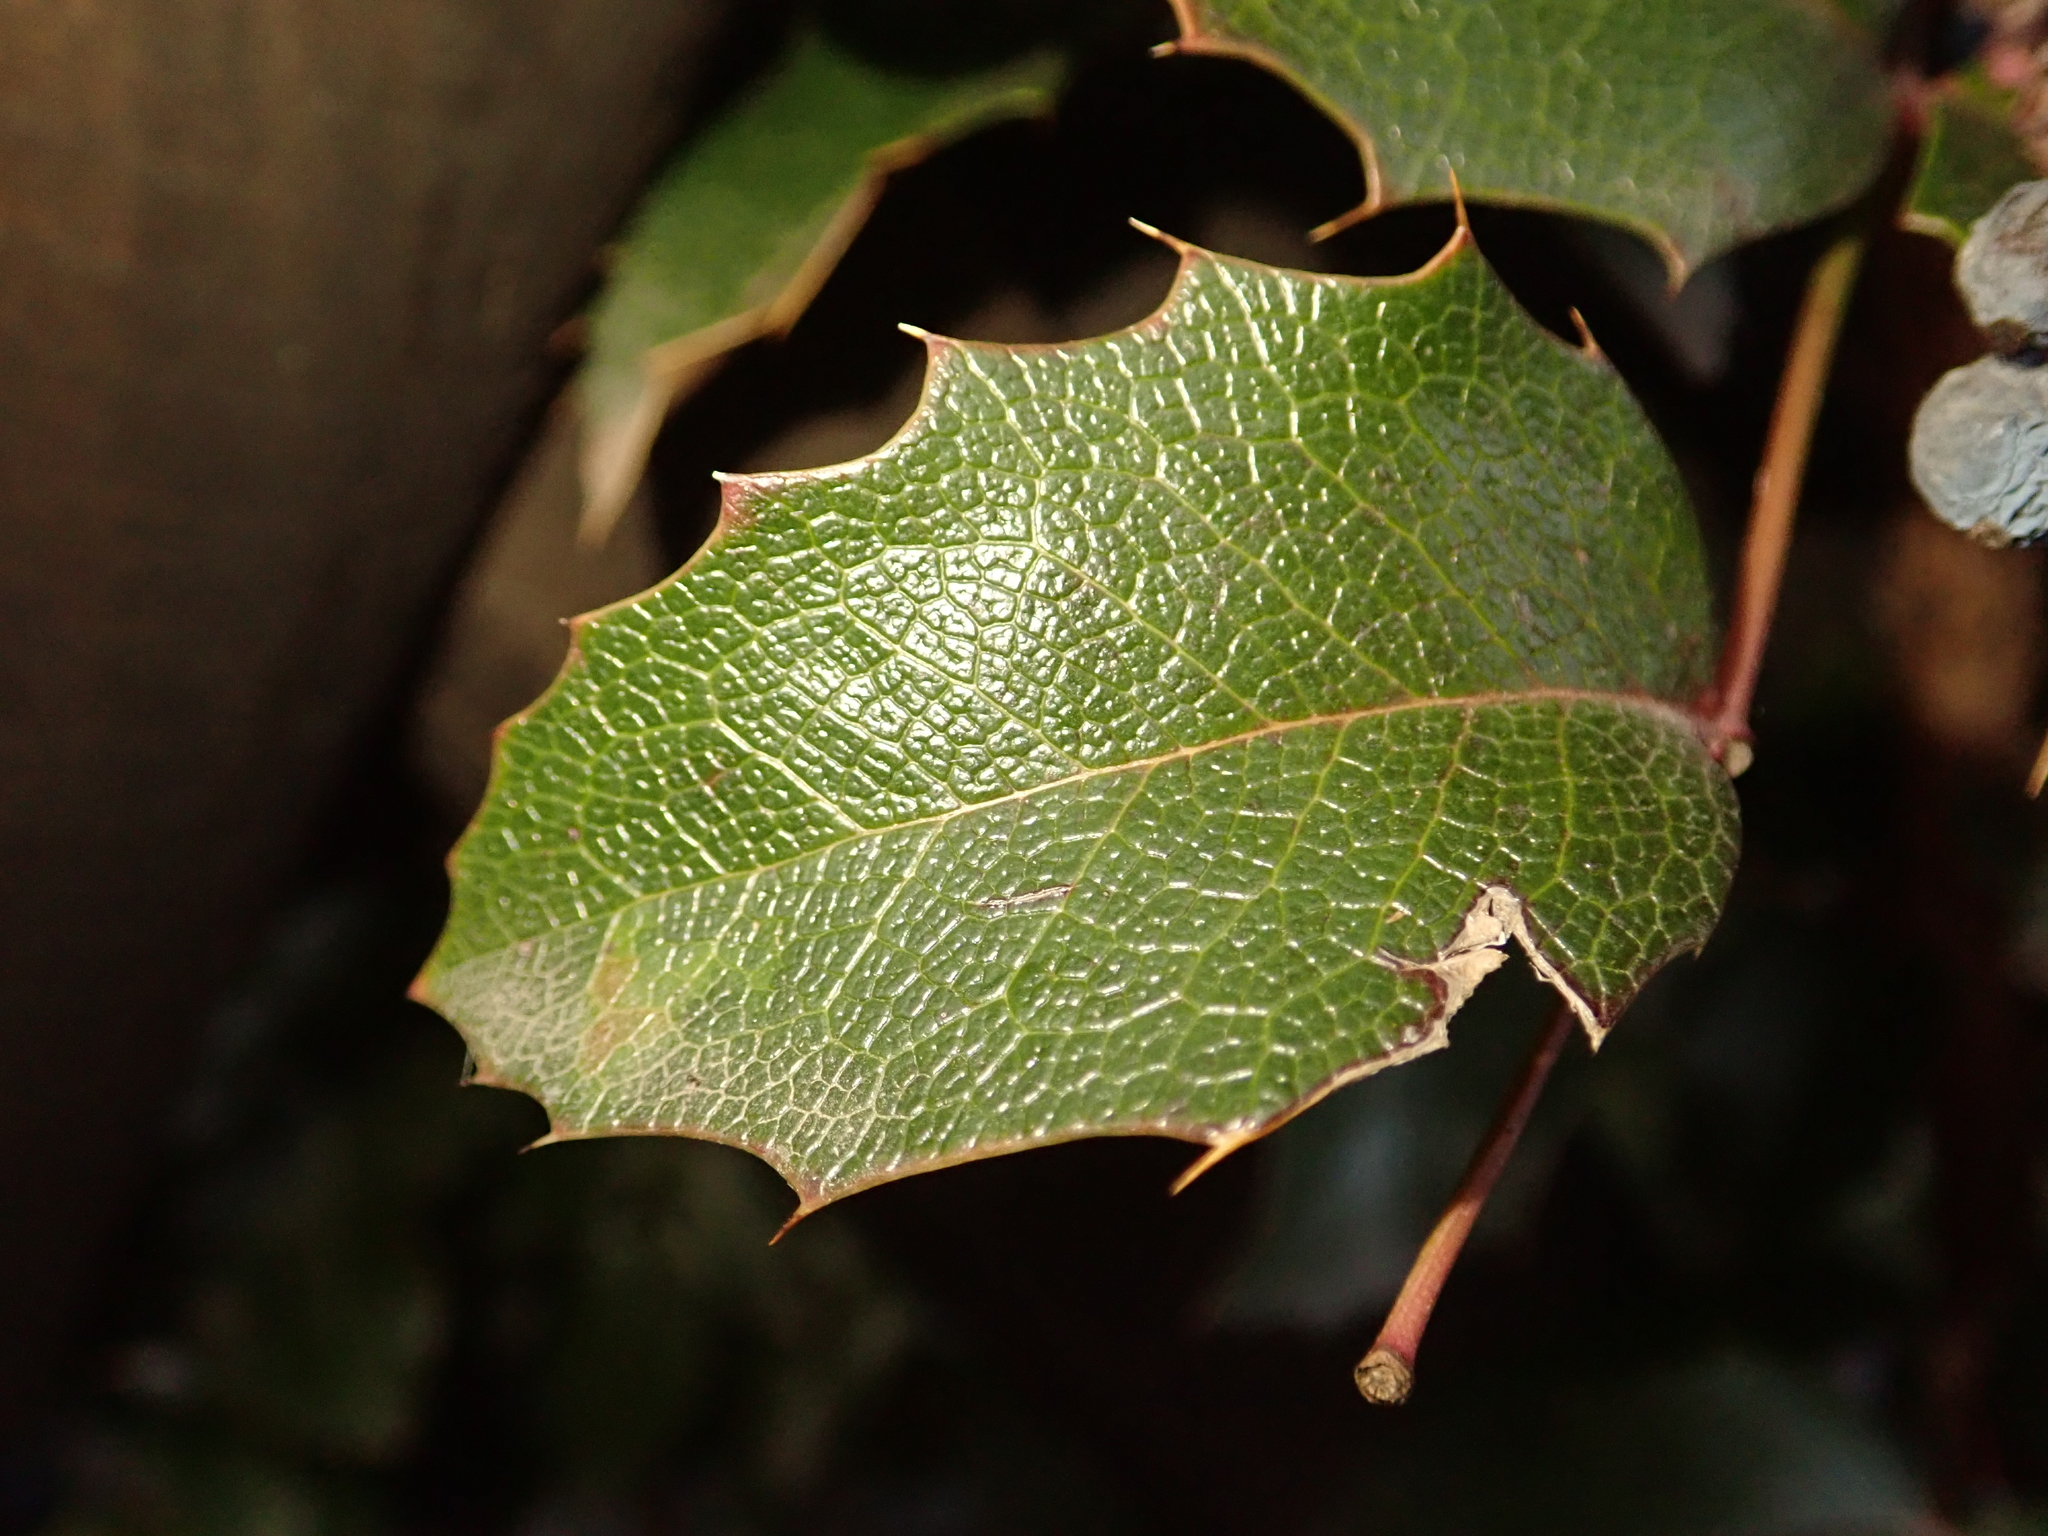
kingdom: Plantae
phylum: Tracheophyta
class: Magnoliopsida
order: Ranunculales
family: Berberidaceae
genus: Mahonia
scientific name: Mahonia aquifolium
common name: Oregon-grape
